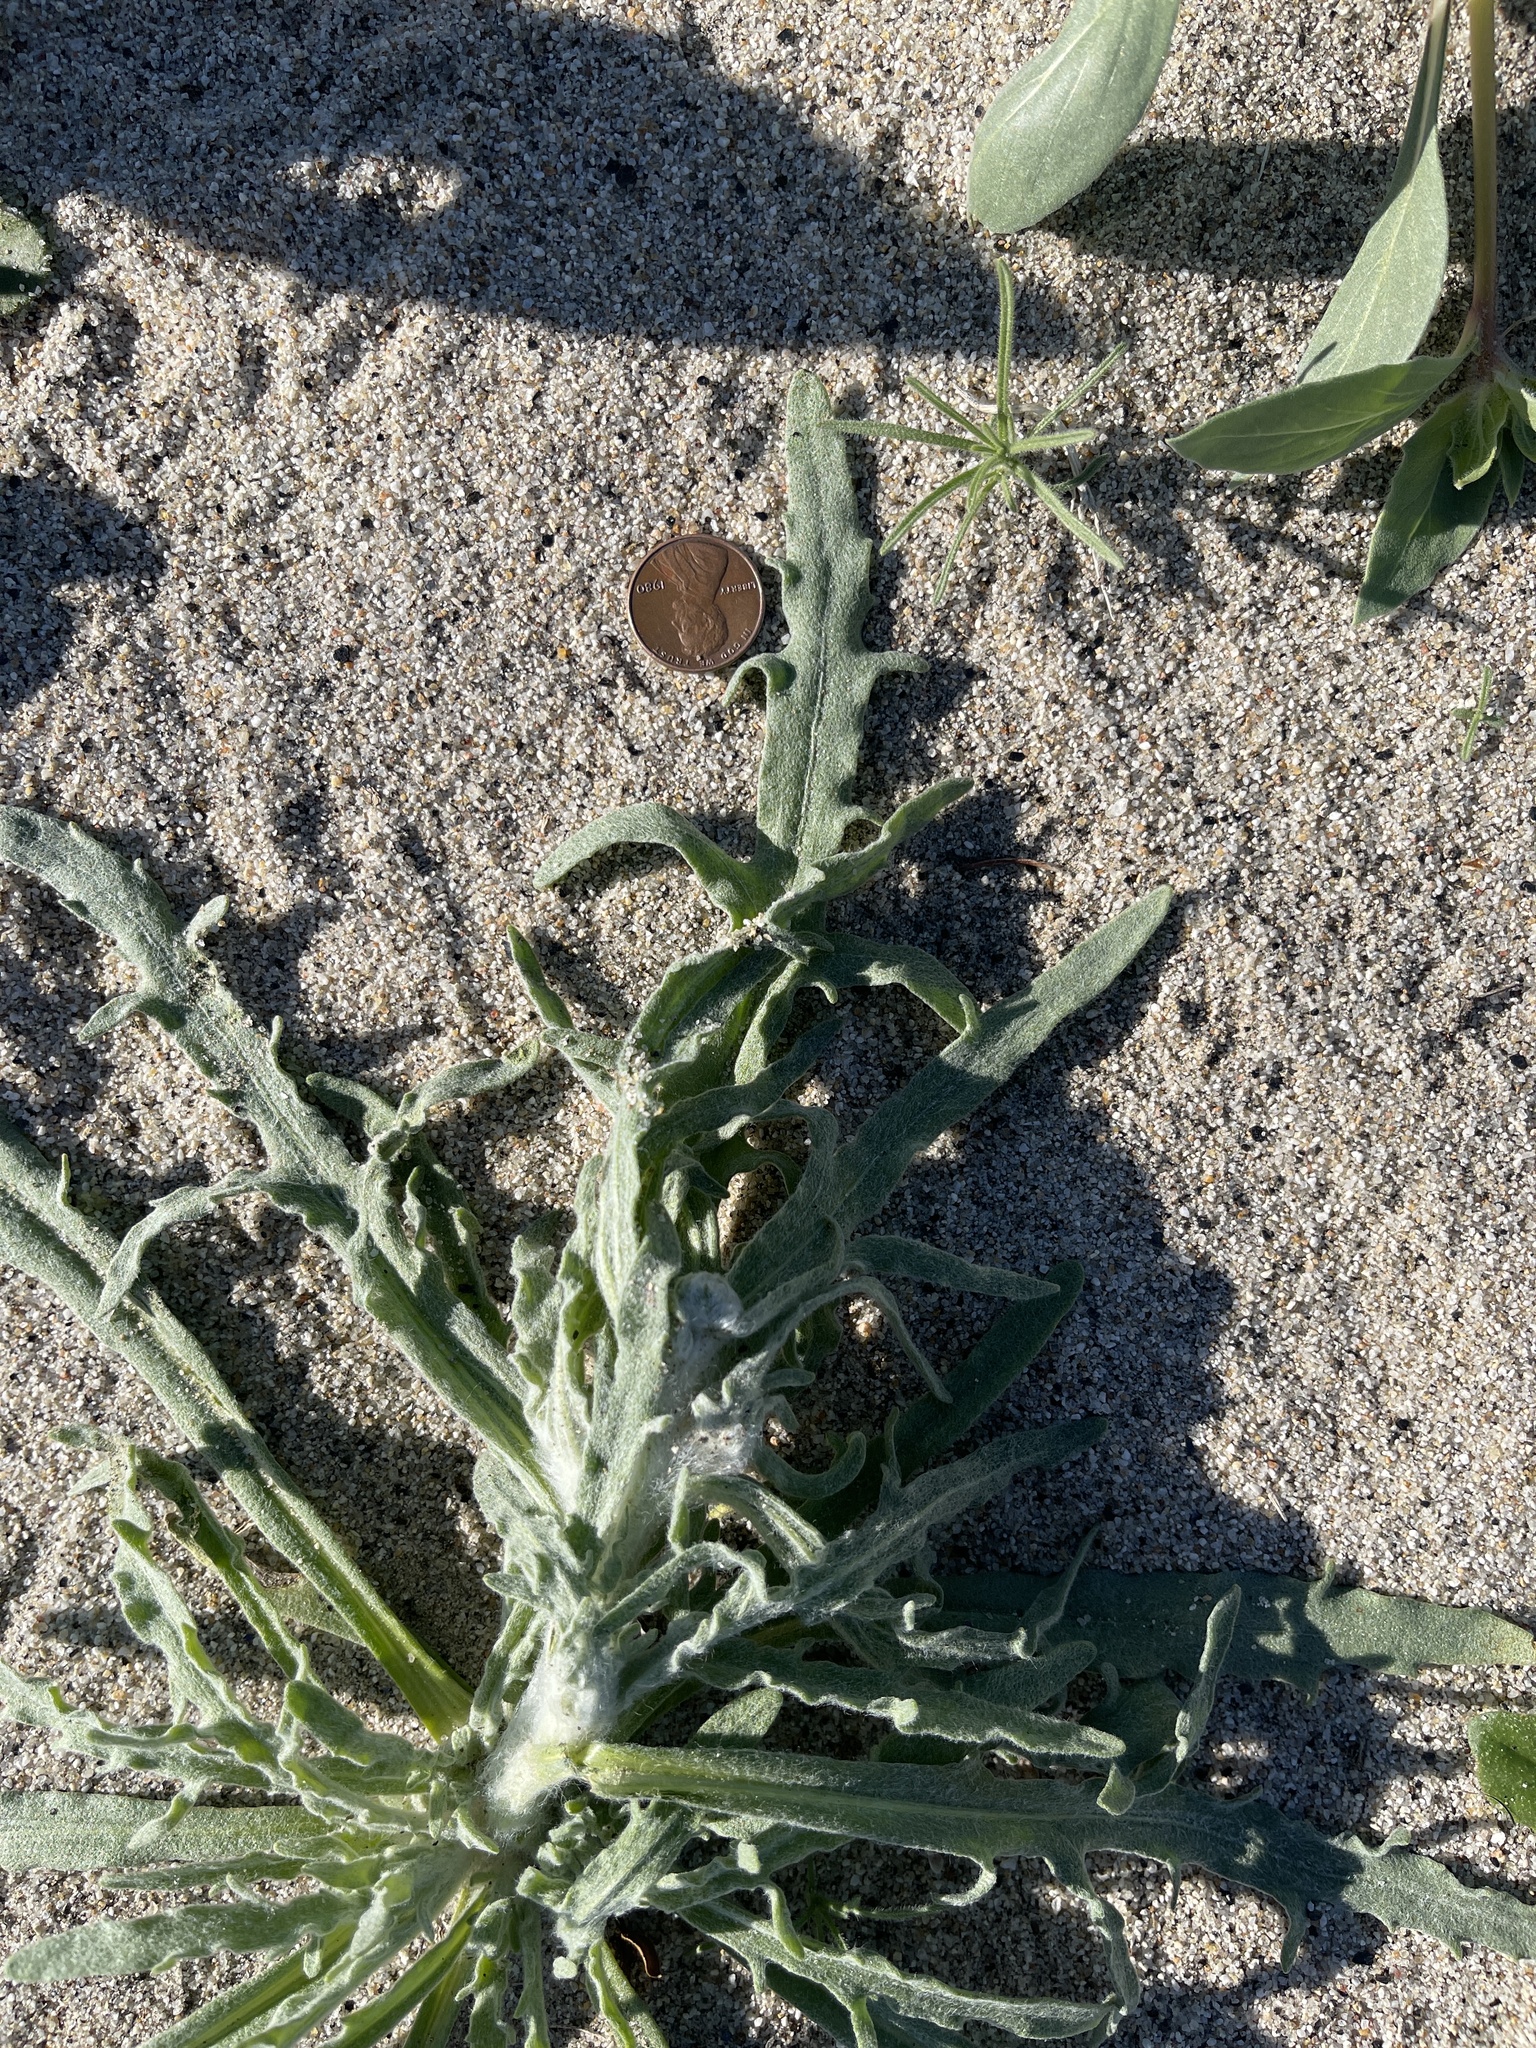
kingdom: Plantae
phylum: Tracheophyta
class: Magnoliopsida
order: Asterales
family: Asteraceae
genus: Baileya
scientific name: Baileya pauciradiata
